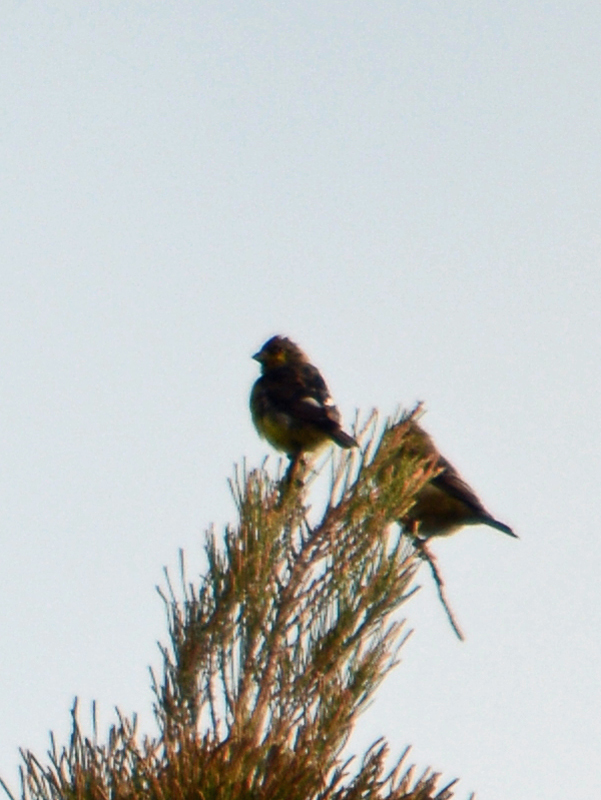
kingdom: Animalia
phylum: Chordata
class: Aves
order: Passeriformes
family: Fringillidae
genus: Spinus
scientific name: Spinus psaltria
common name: Lesser goldfinch
